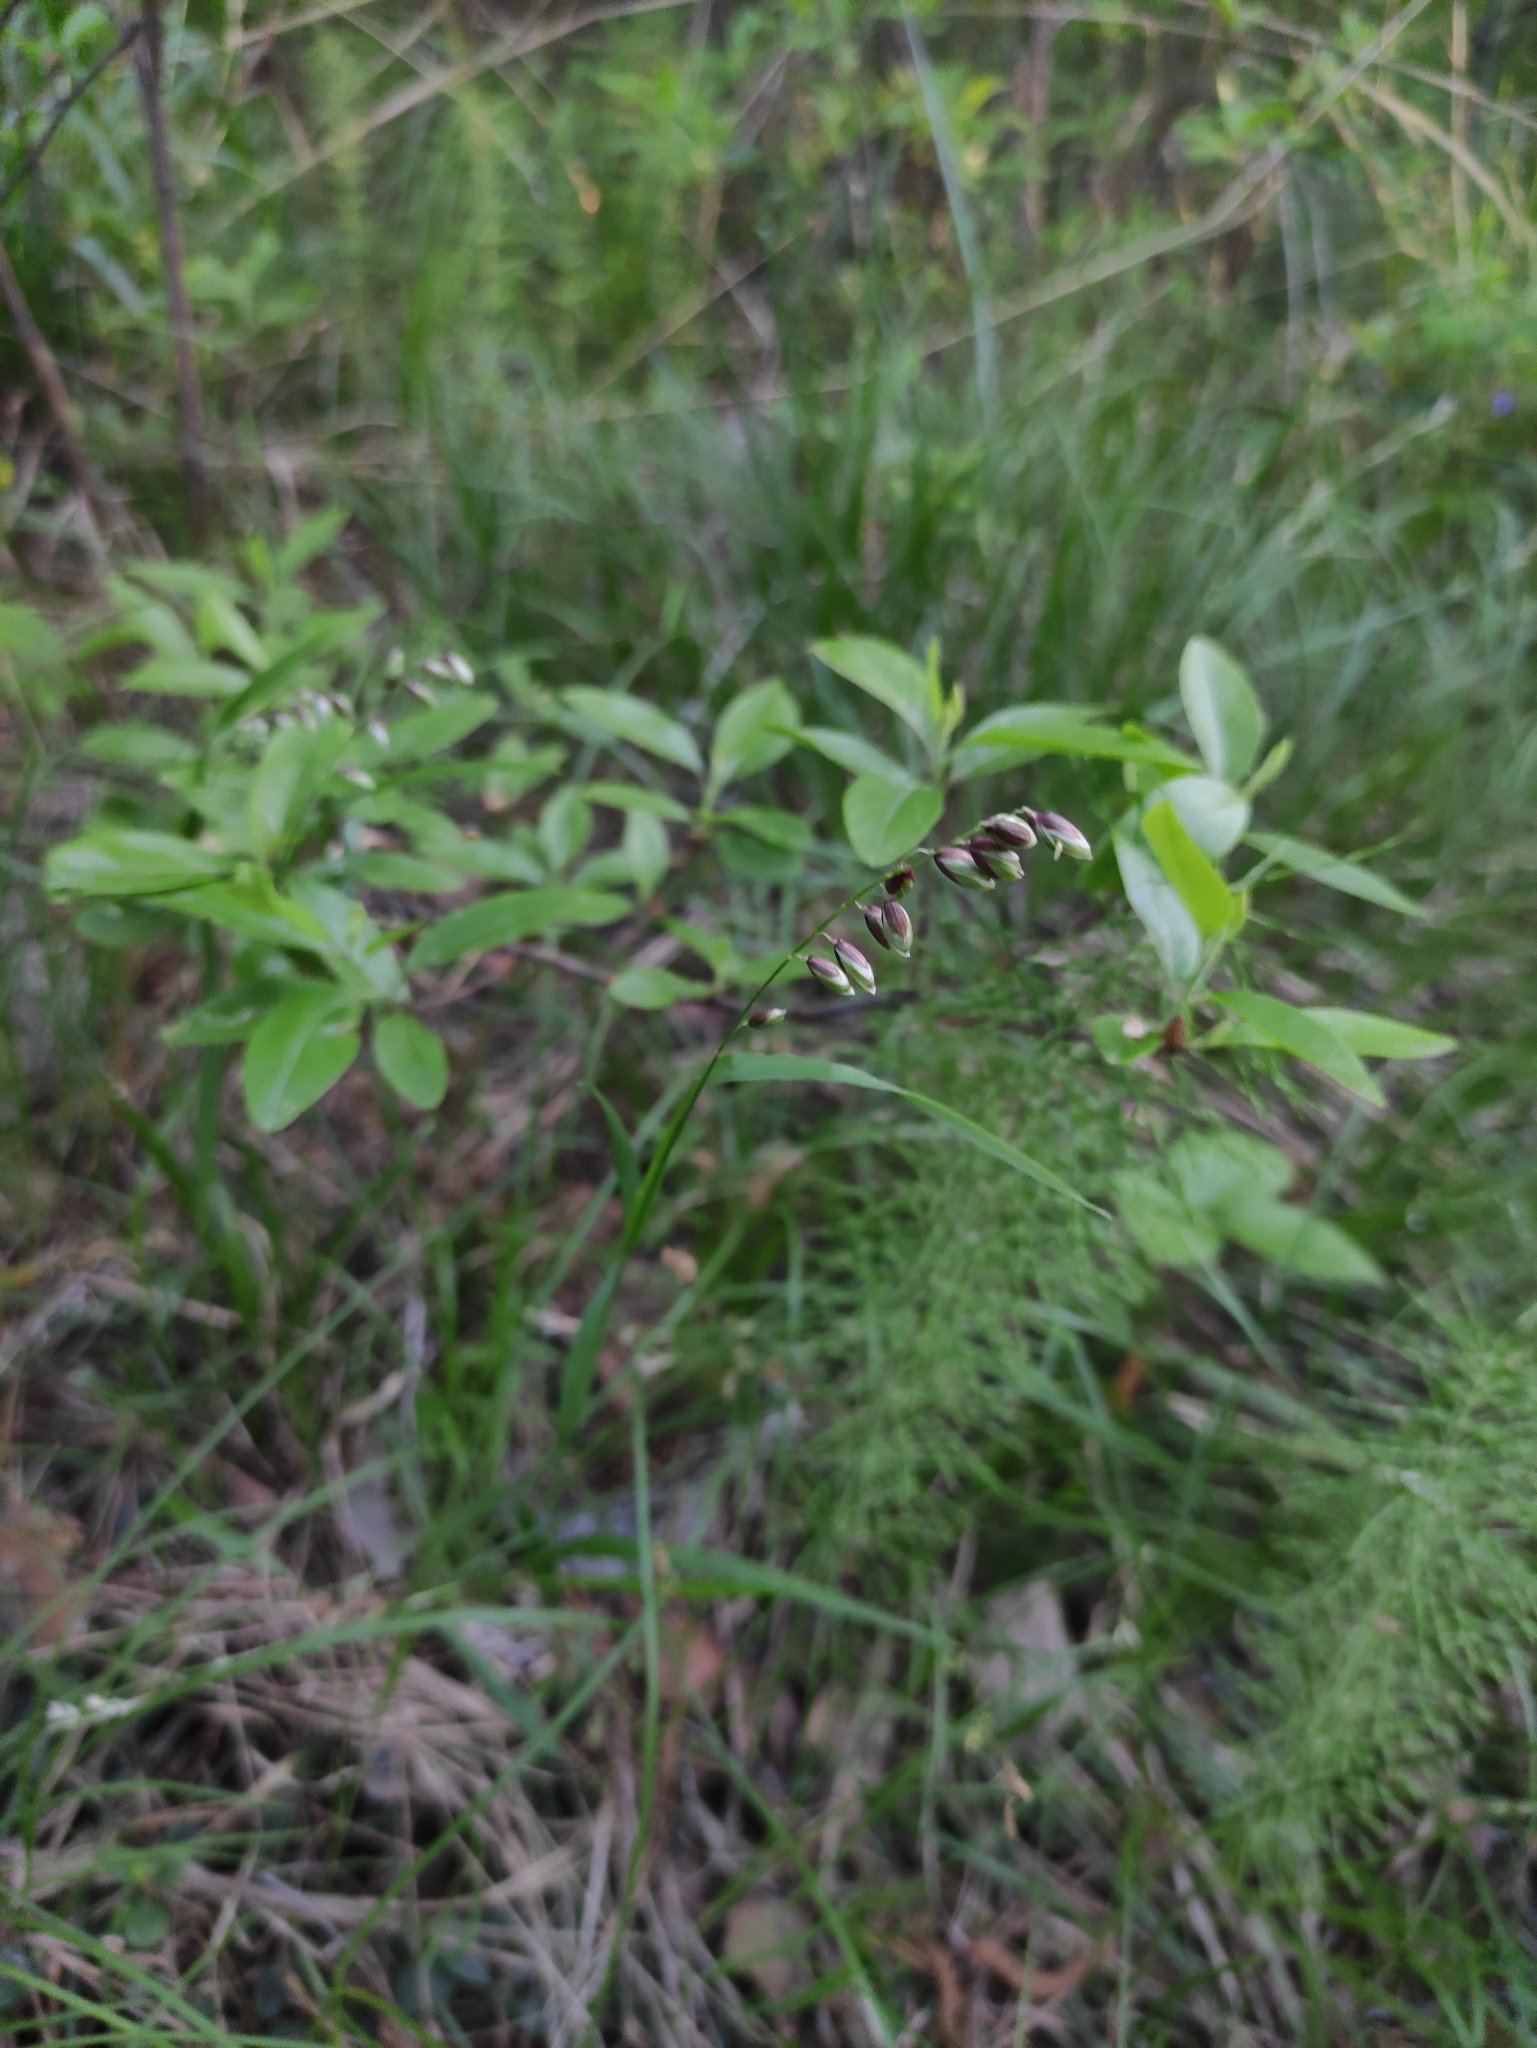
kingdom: Plantae
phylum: Tracheophyta
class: Liliopsida
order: Poales
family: Poaceae
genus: Melica
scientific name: Melica nutans
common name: Mountain melick
